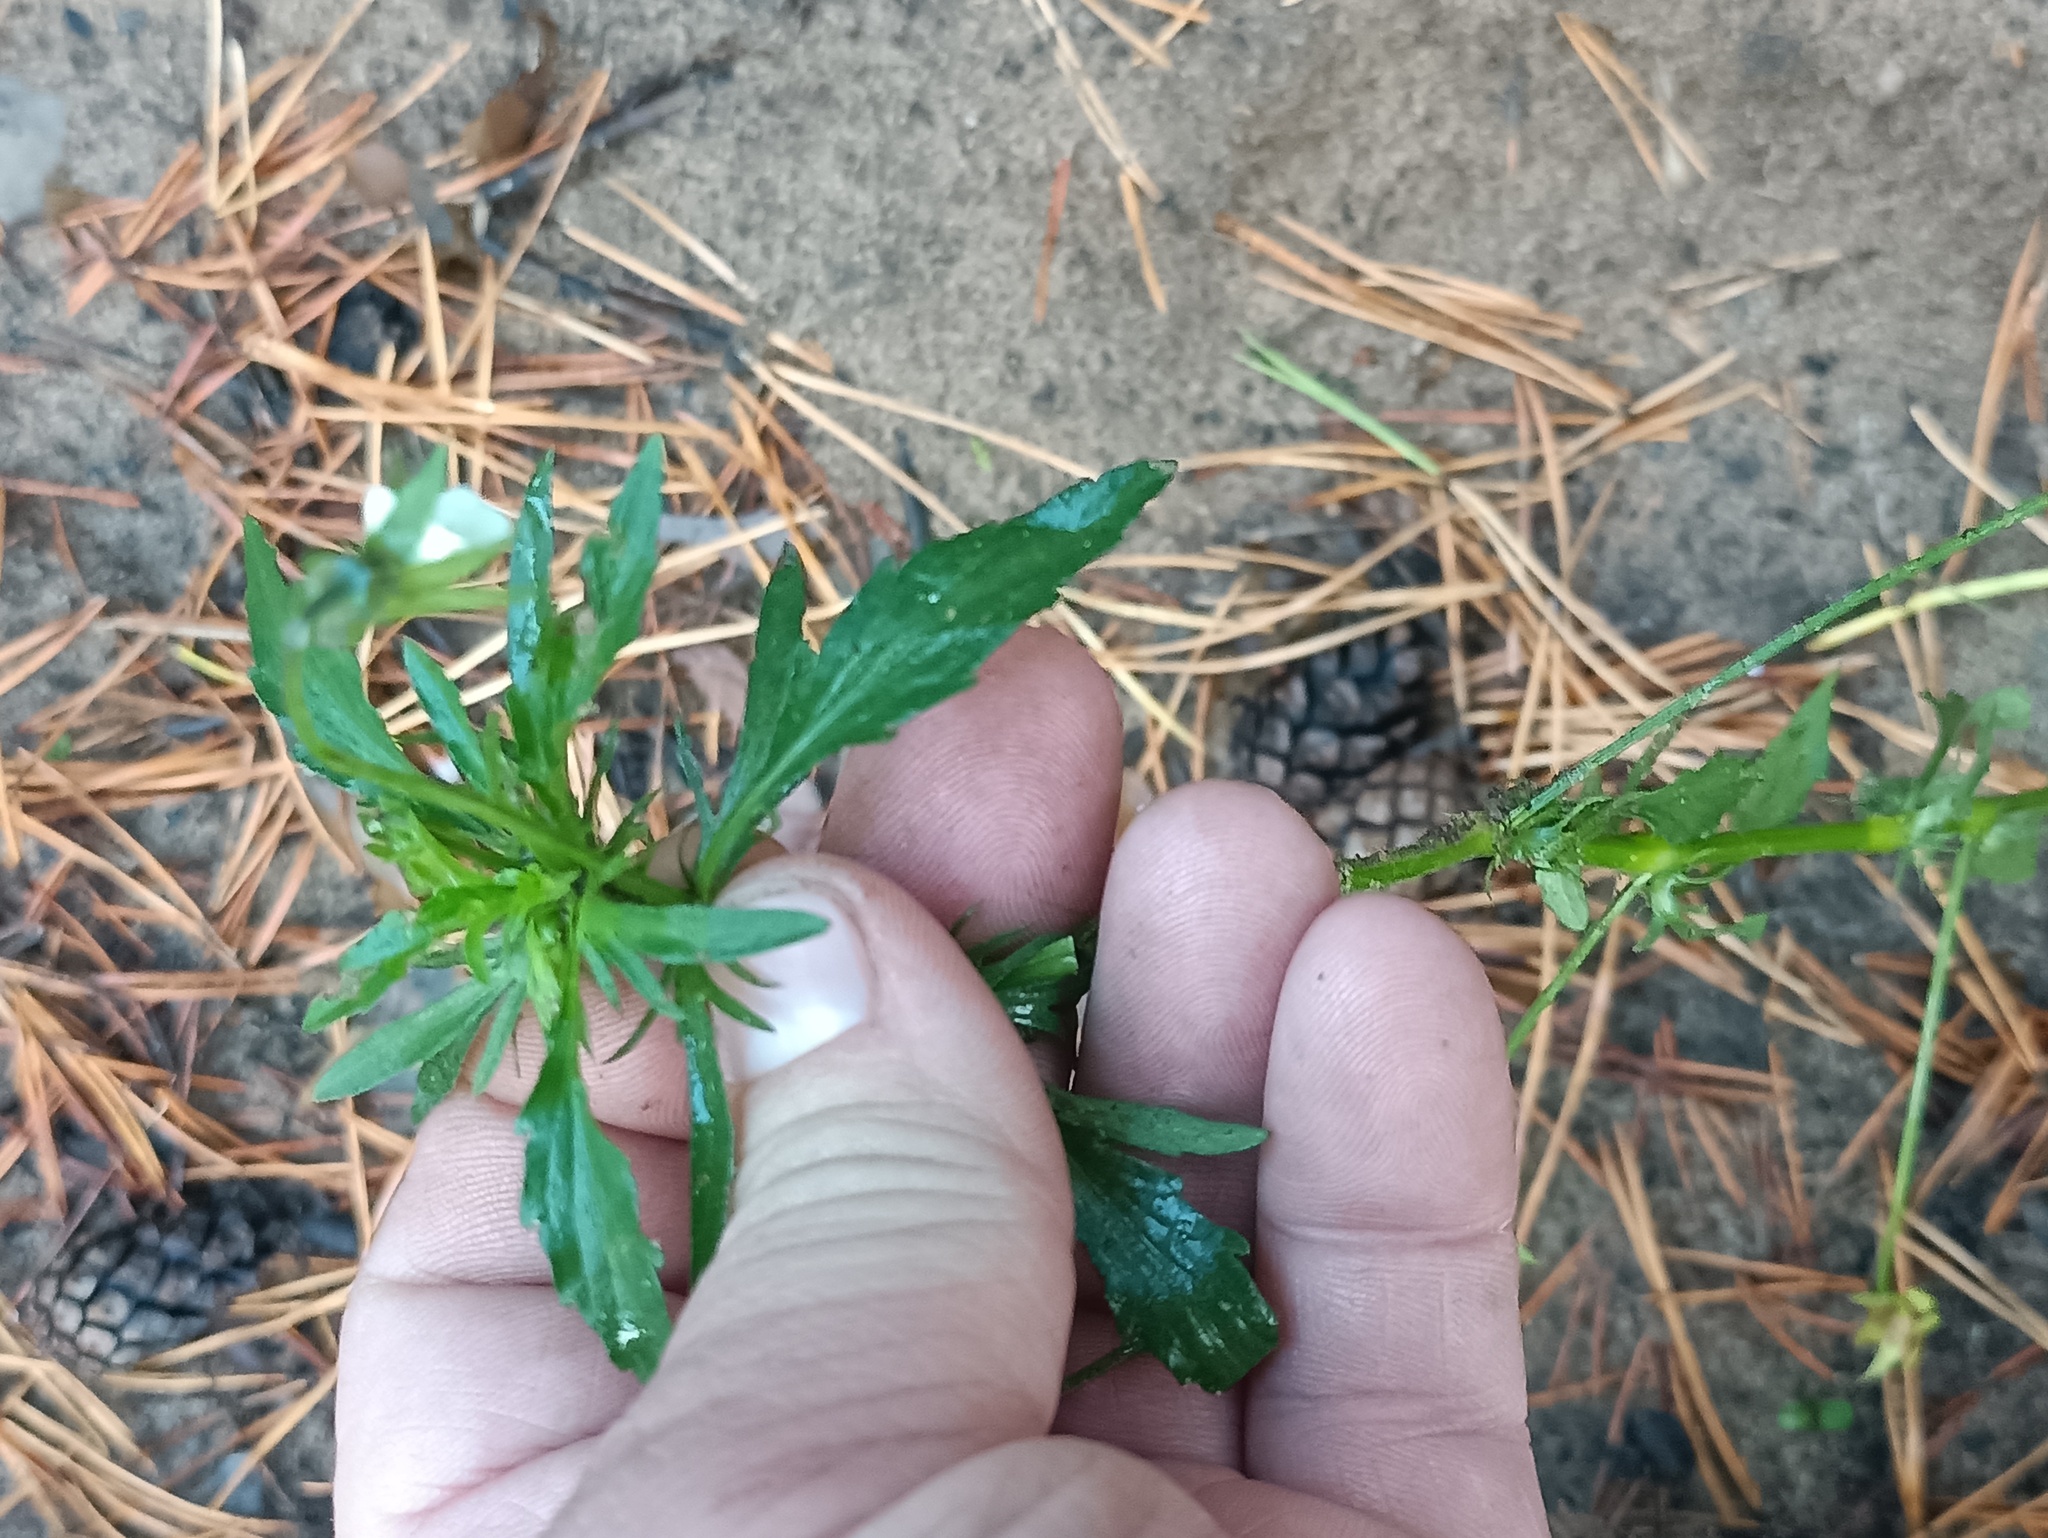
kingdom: Plantae
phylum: Tracheophyta
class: Magnoliopsida
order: Malpighiales
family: Violaceae
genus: Viola
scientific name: Viola arvensis
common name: Field pansy
